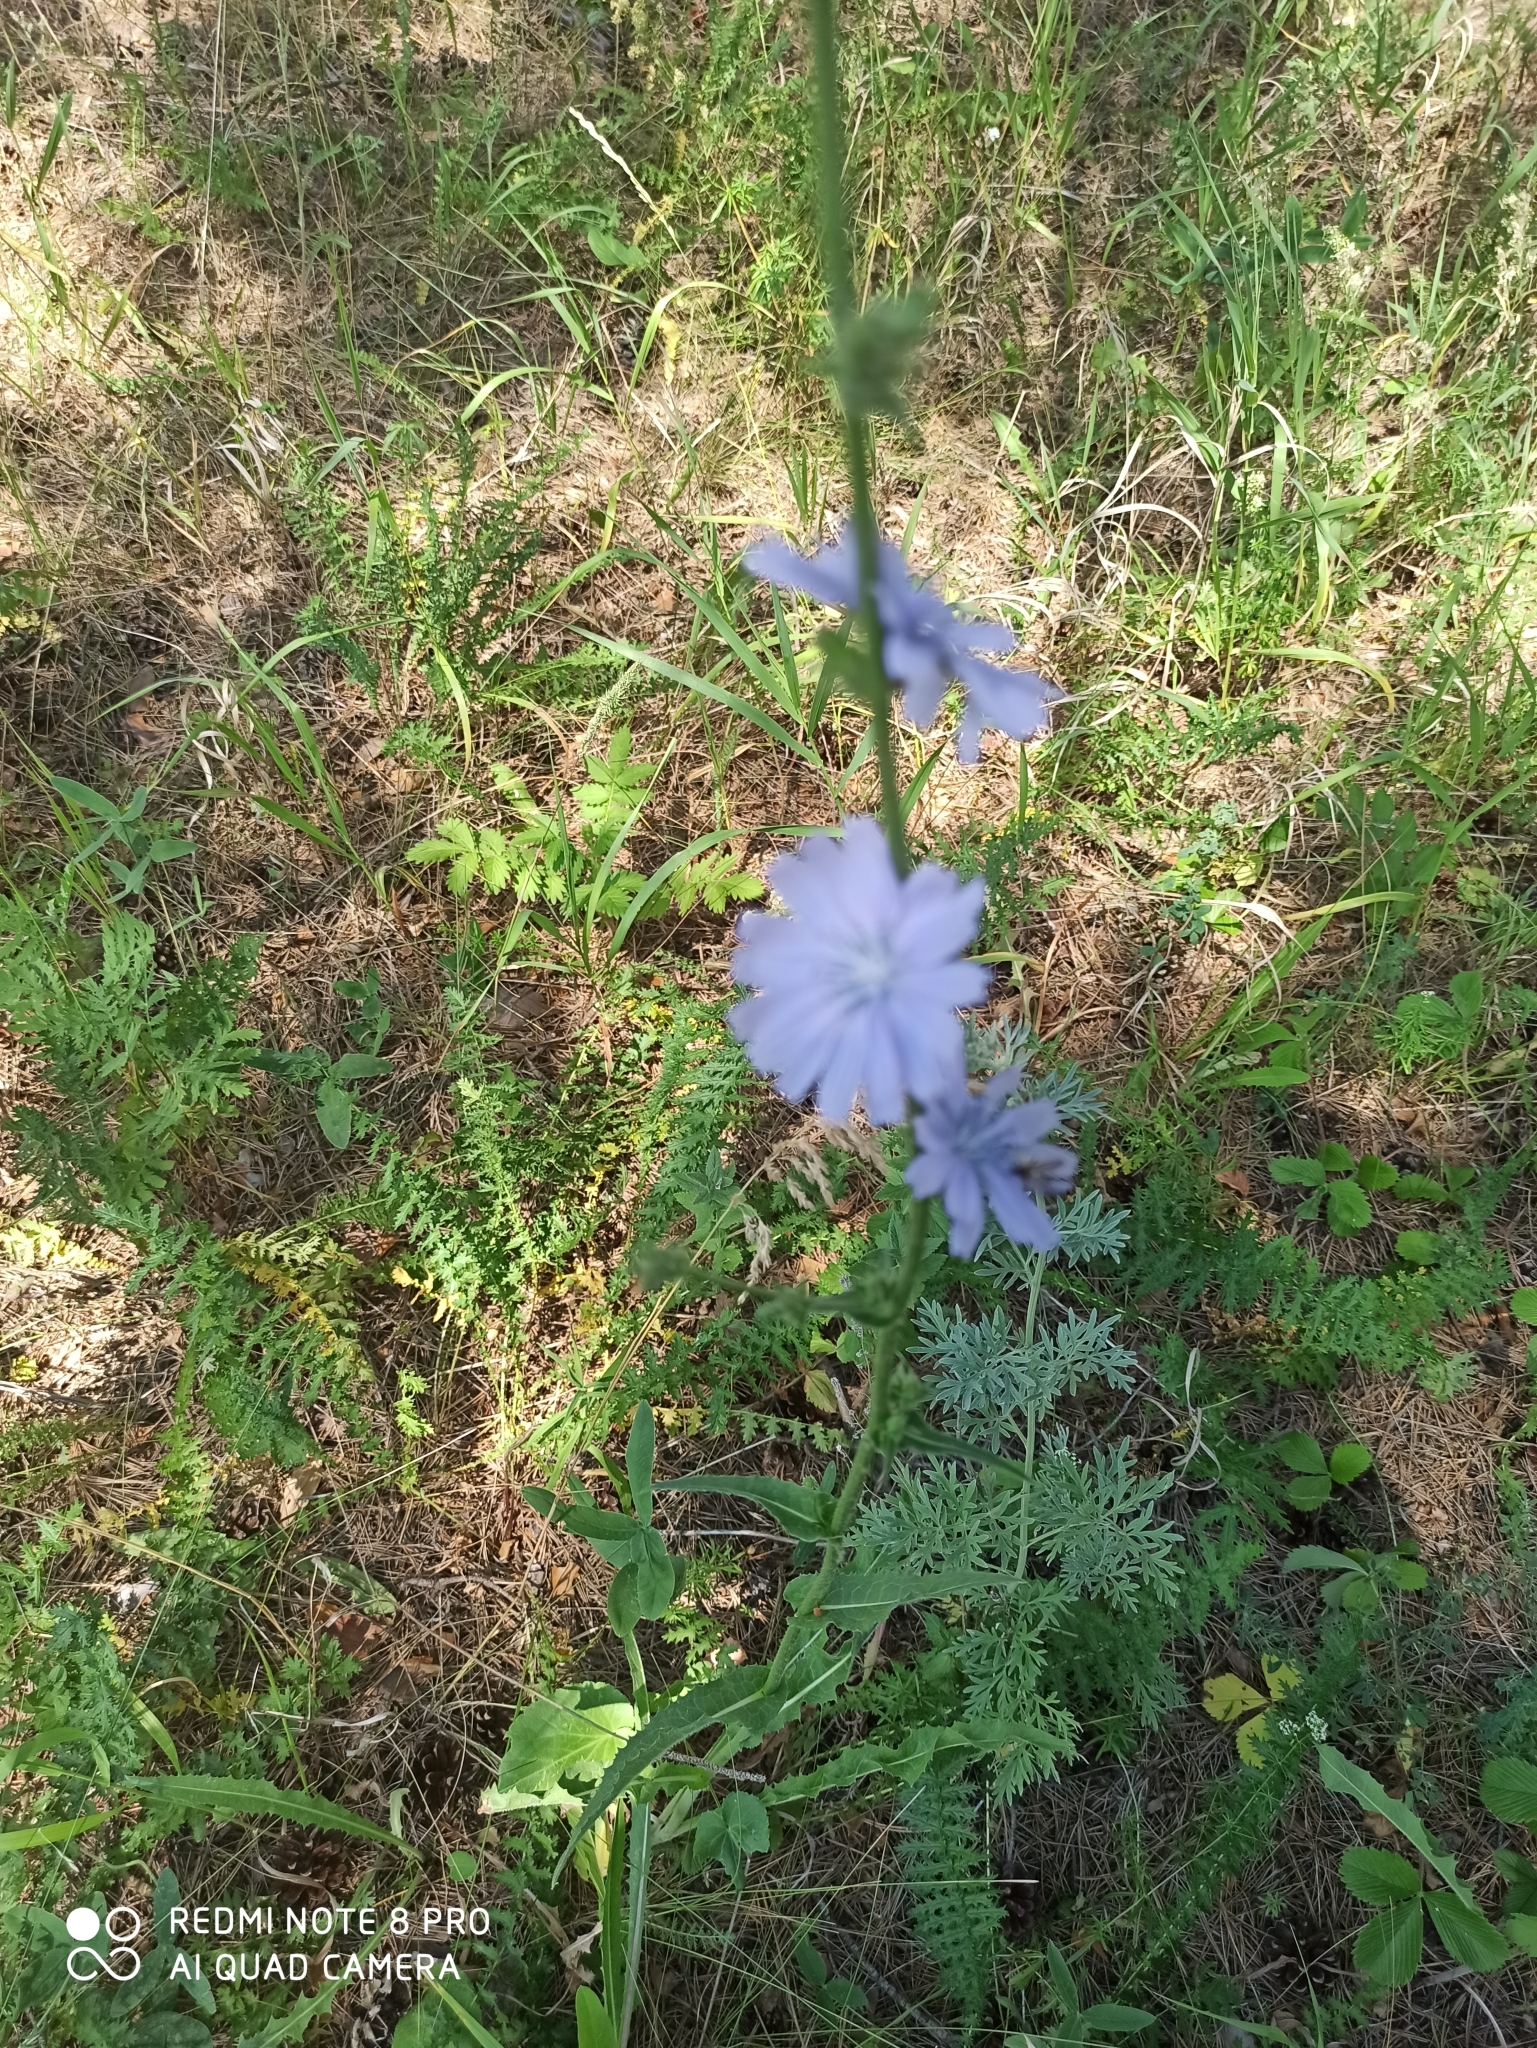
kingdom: Plantae
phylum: Tracheophyta
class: Magnoliopsida
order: Asterales
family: Asteraceae
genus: Cichorium
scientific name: Cichorium intybus
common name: Chicory
